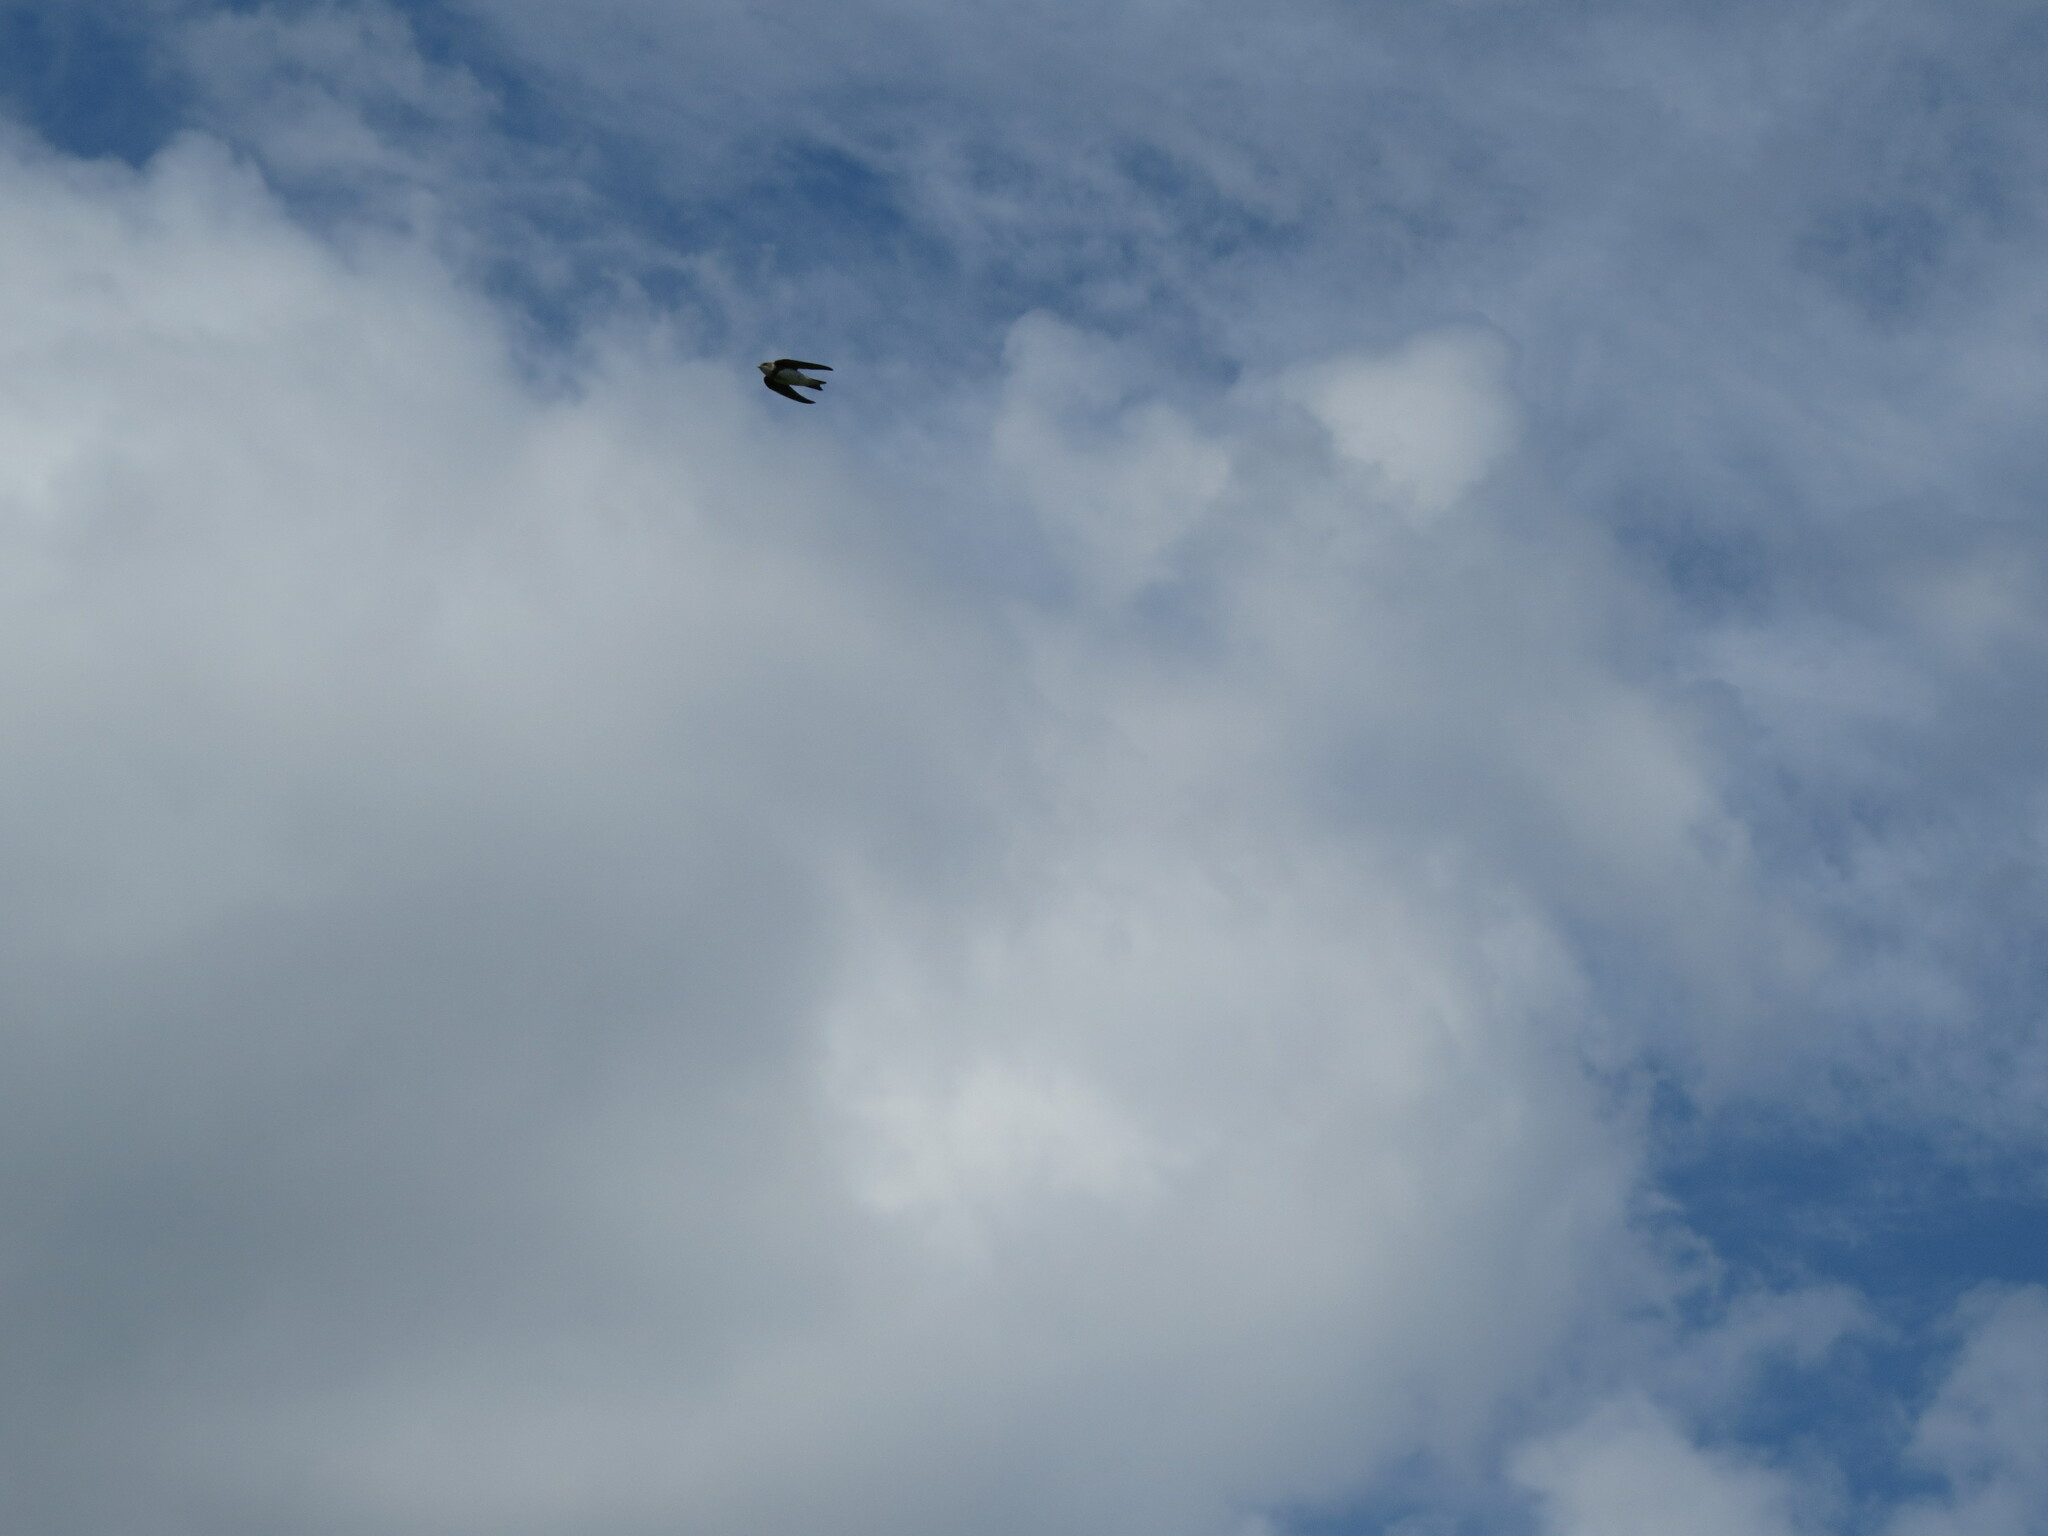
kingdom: Animalia
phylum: Chordata
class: Aves
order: Passeriformes
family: Hirundinidae
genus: Riparia
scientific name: Riparia riparia
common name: Sand martin
